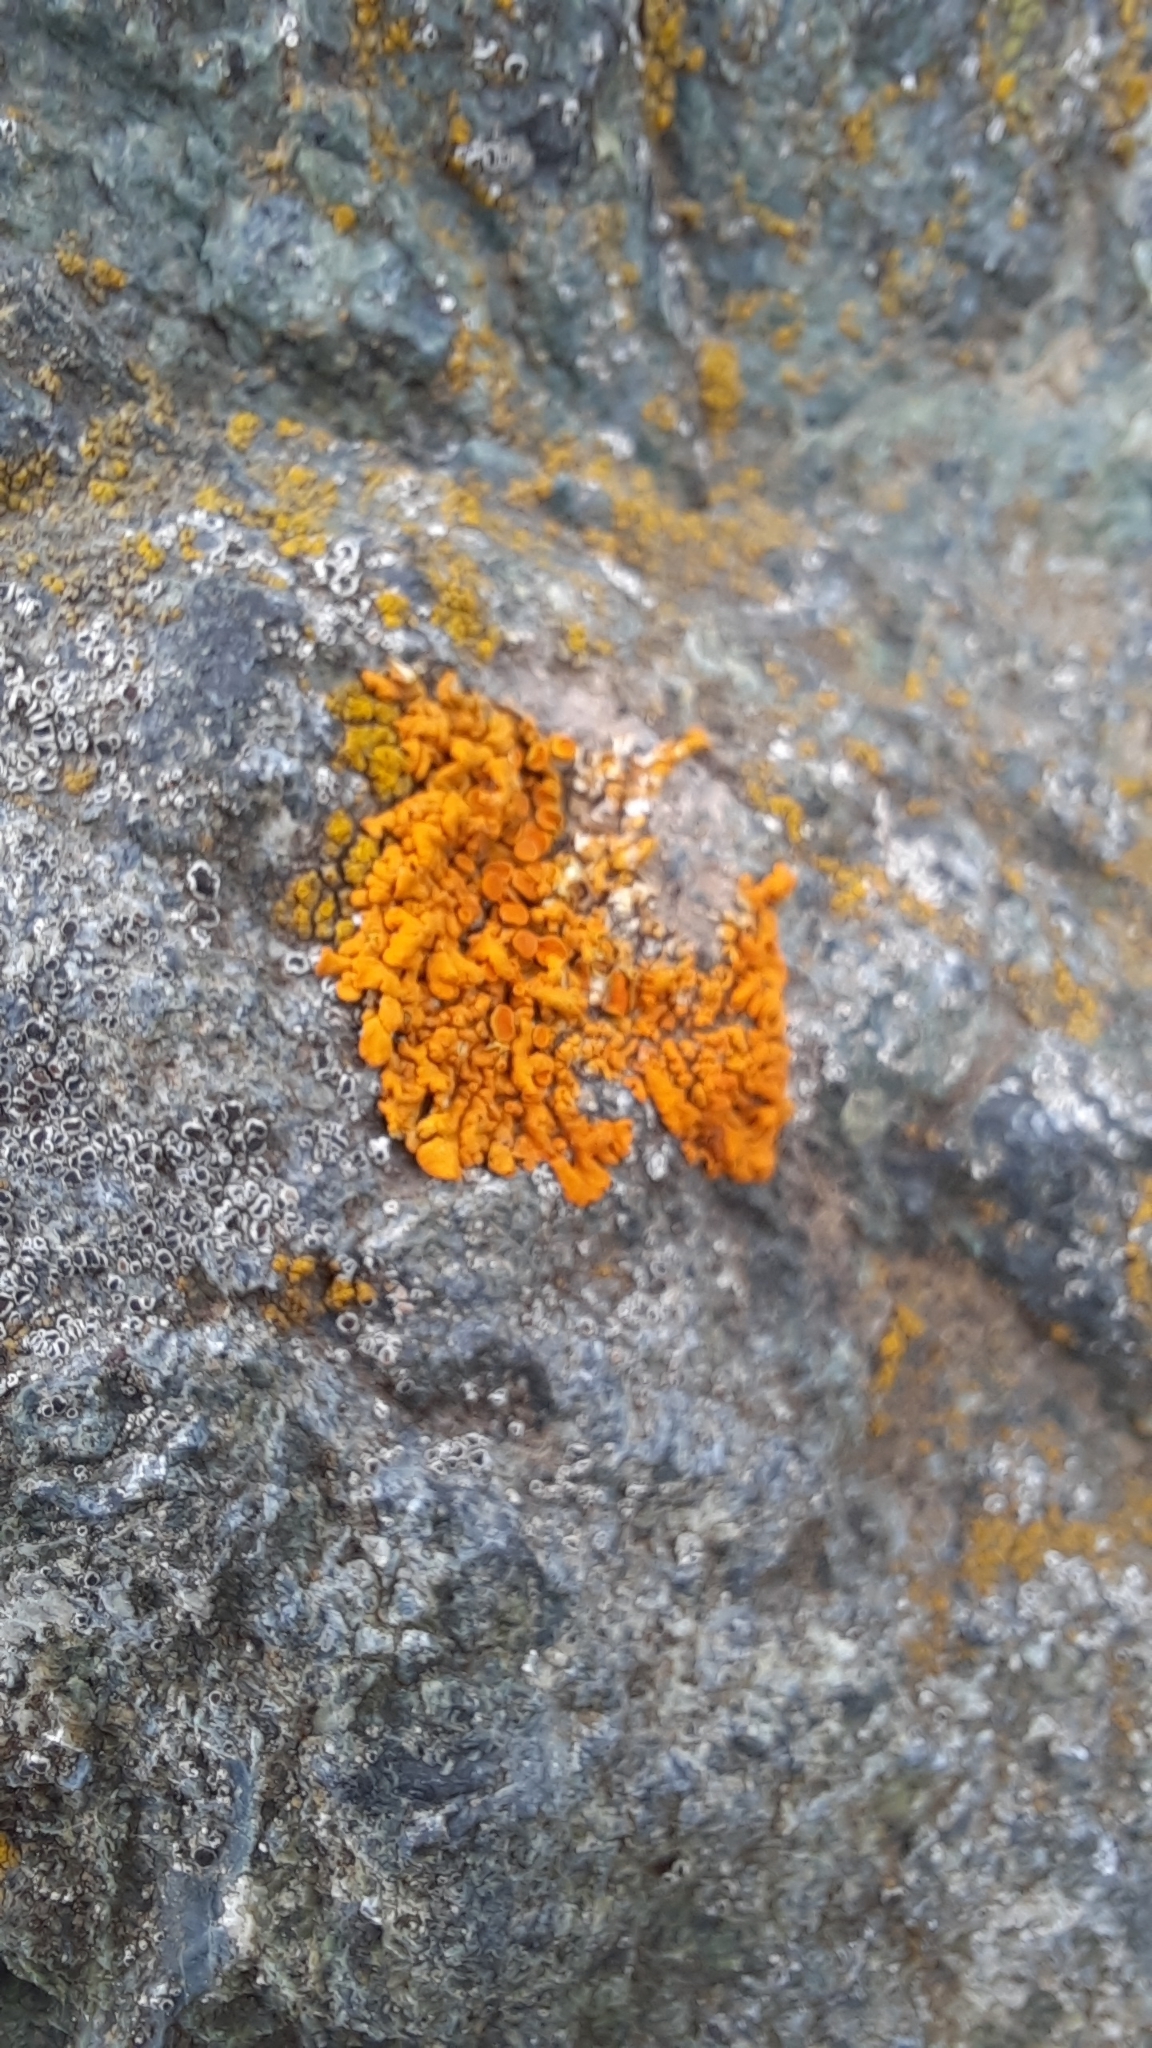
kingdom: Fungi
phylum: Ascomycota
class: Lecanoromycetes
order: Teloschistales
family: Teloschistaceae
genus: Xanthoria
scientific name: Xanthoria parietina
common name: Common orange lichen
